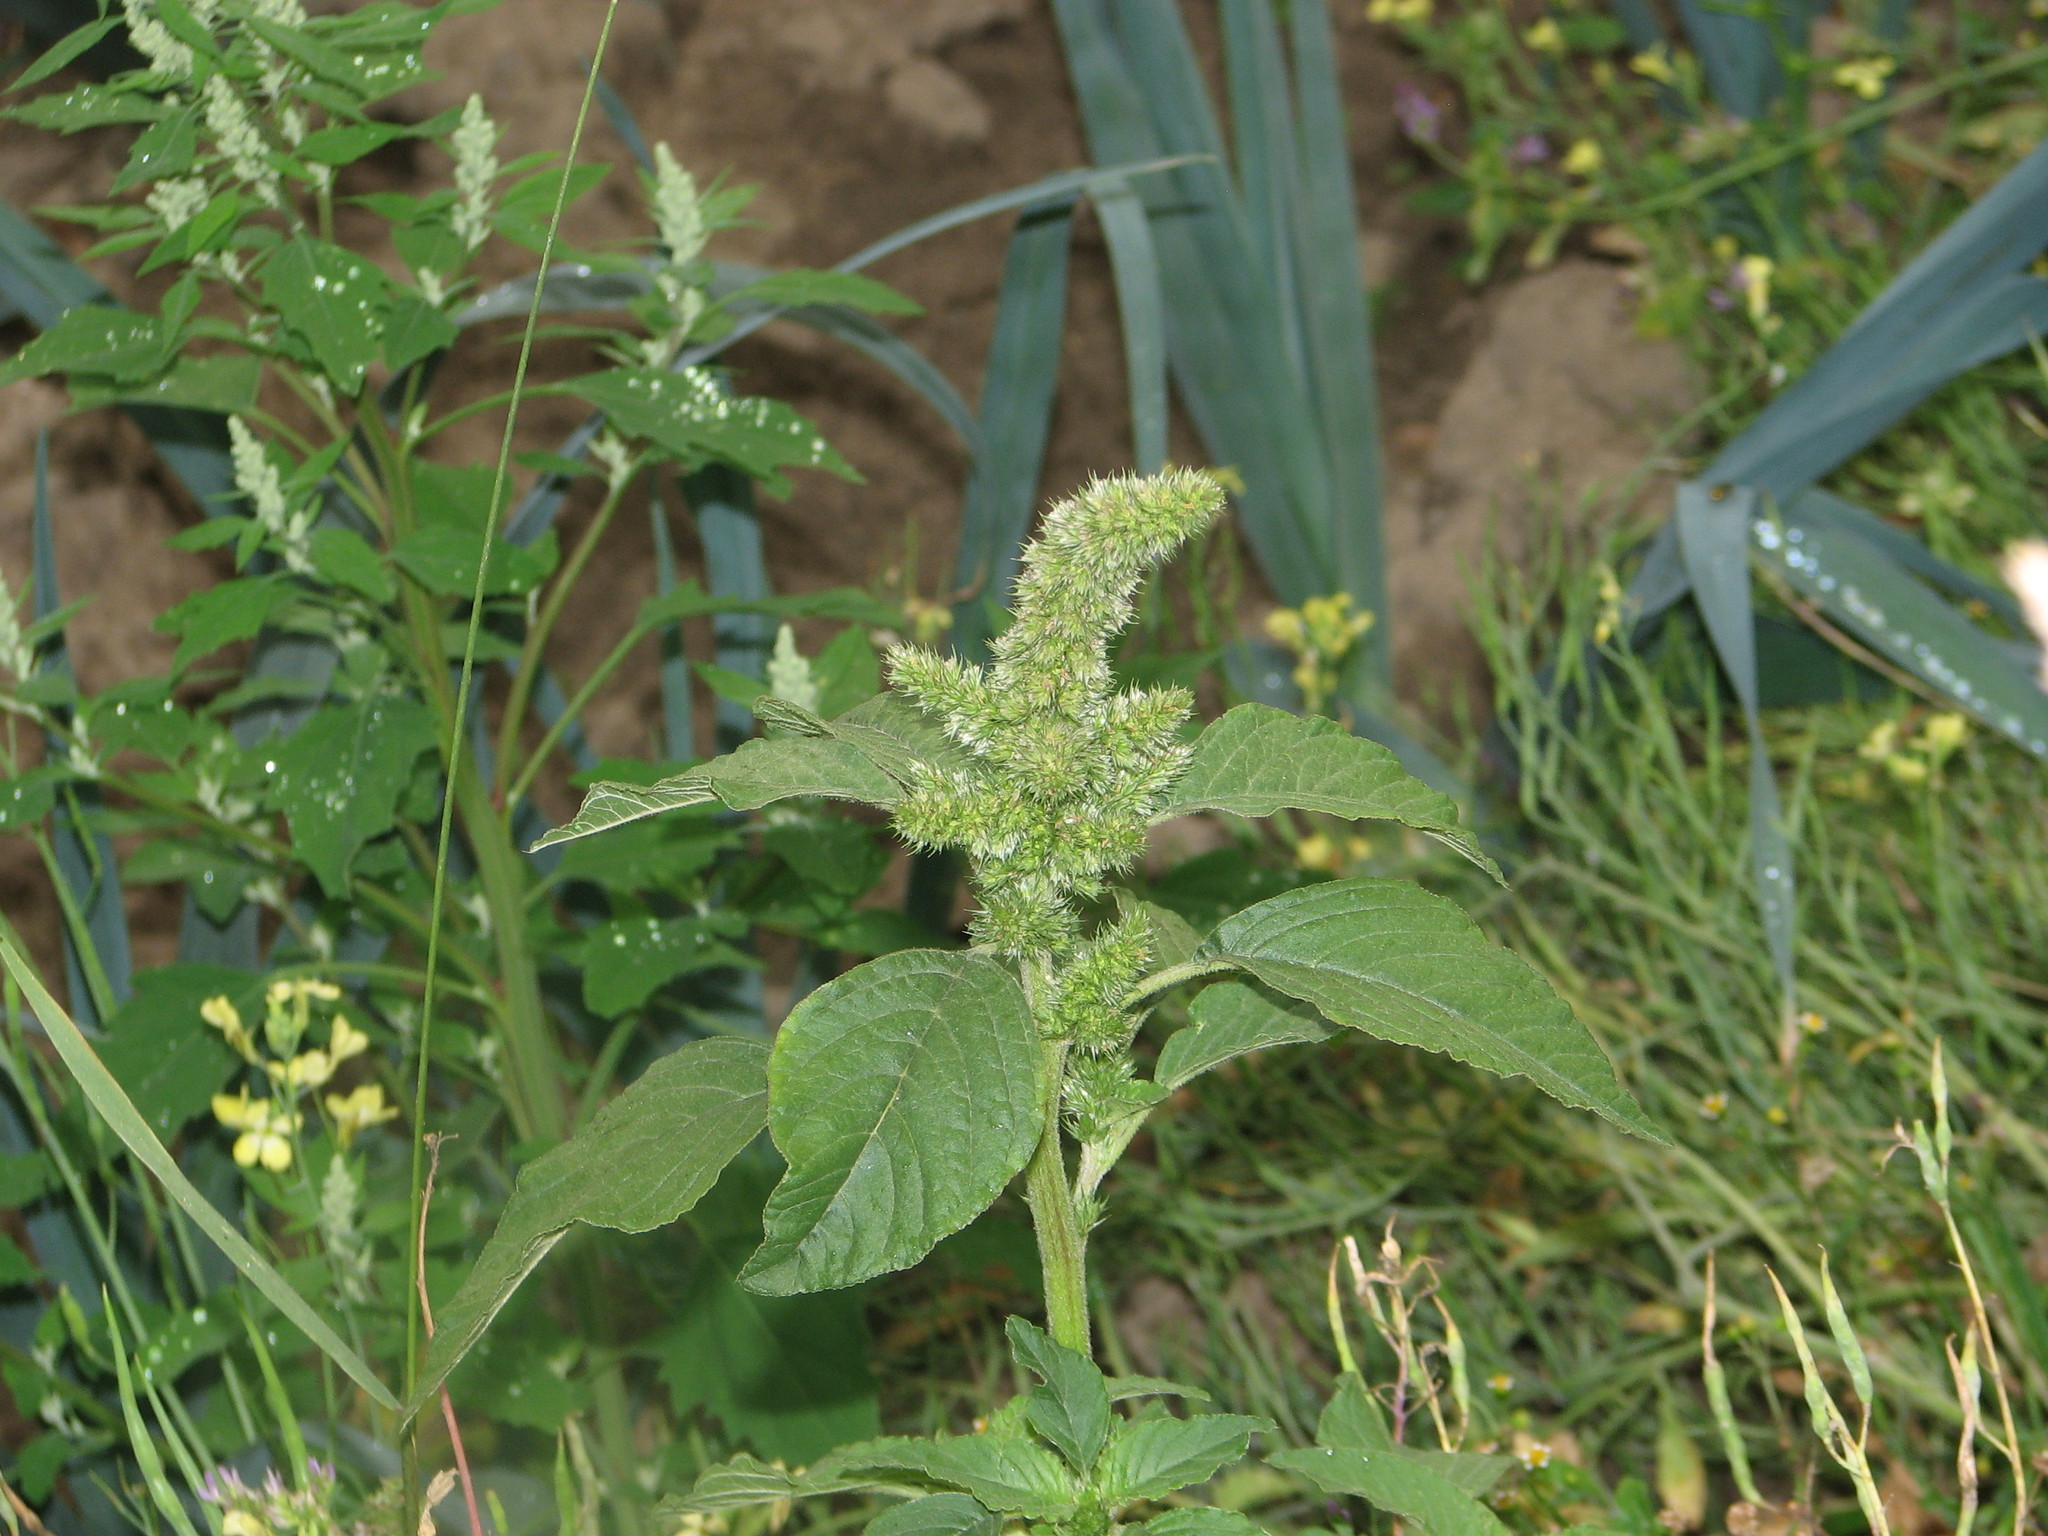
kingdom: Plantae
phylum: Tracheophyta
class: Magnoliopsida
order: Caryophyllales
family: Amaranthaceae
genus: Amaranthus
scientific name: Amaranthus retroflexus
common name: Redroot amaranth
